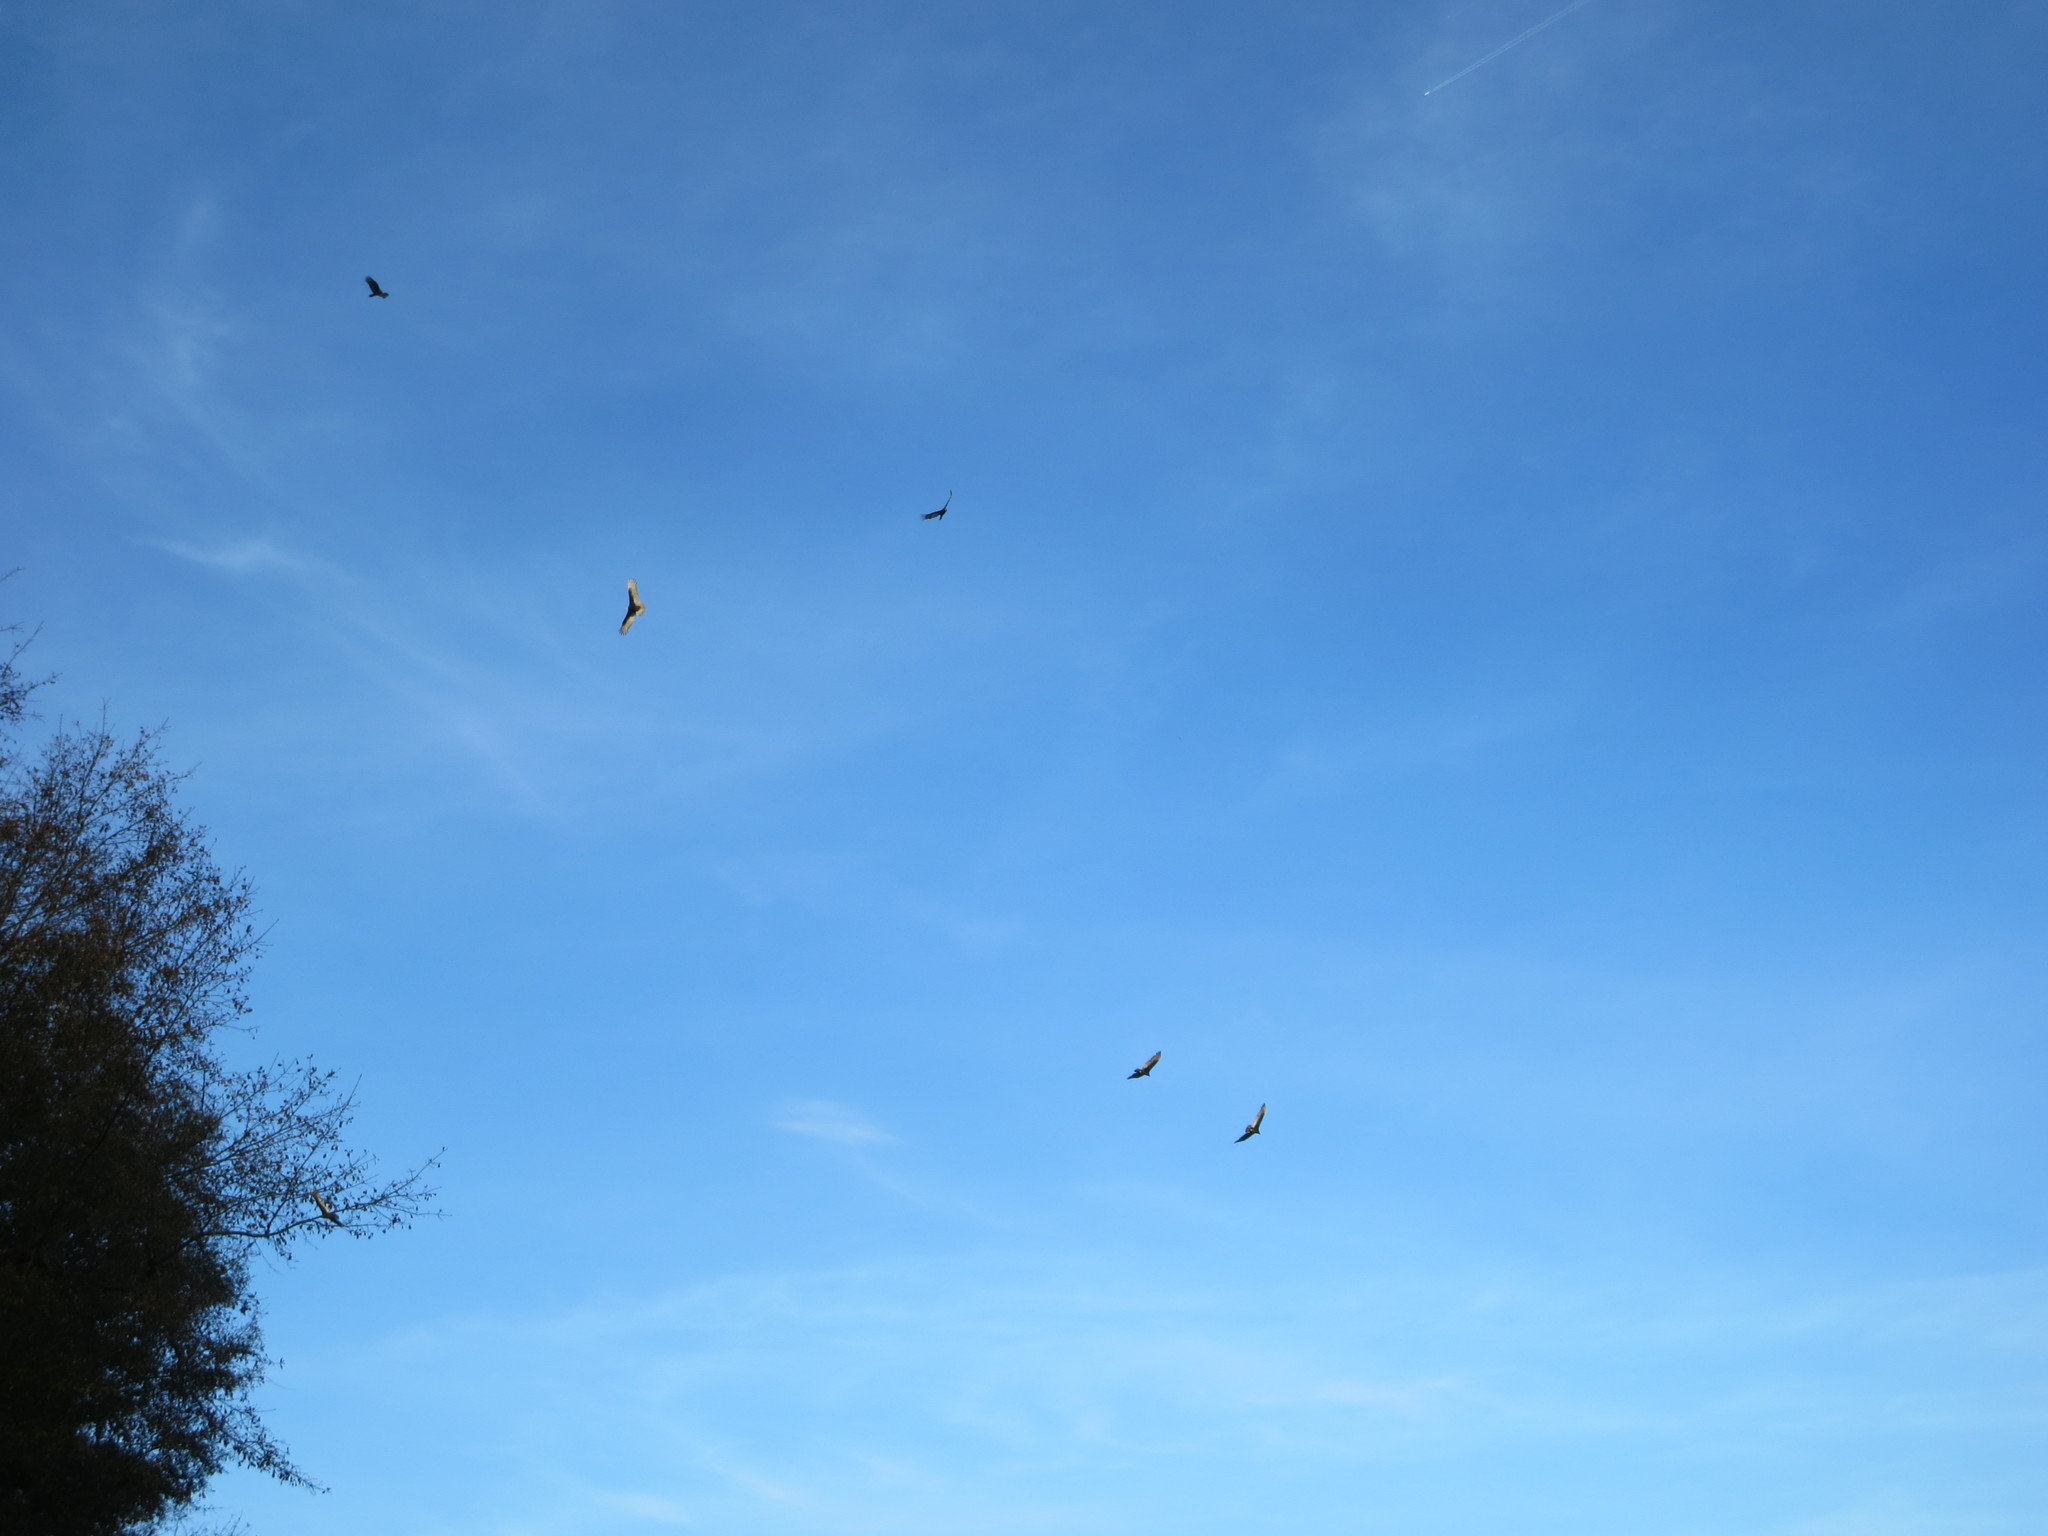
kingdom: Animalia
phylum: Chordata
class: Aves
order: Accipitriformes
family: Cathartidae
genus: Cathartes
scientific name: Cathartes aura
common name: Turkey vulture
